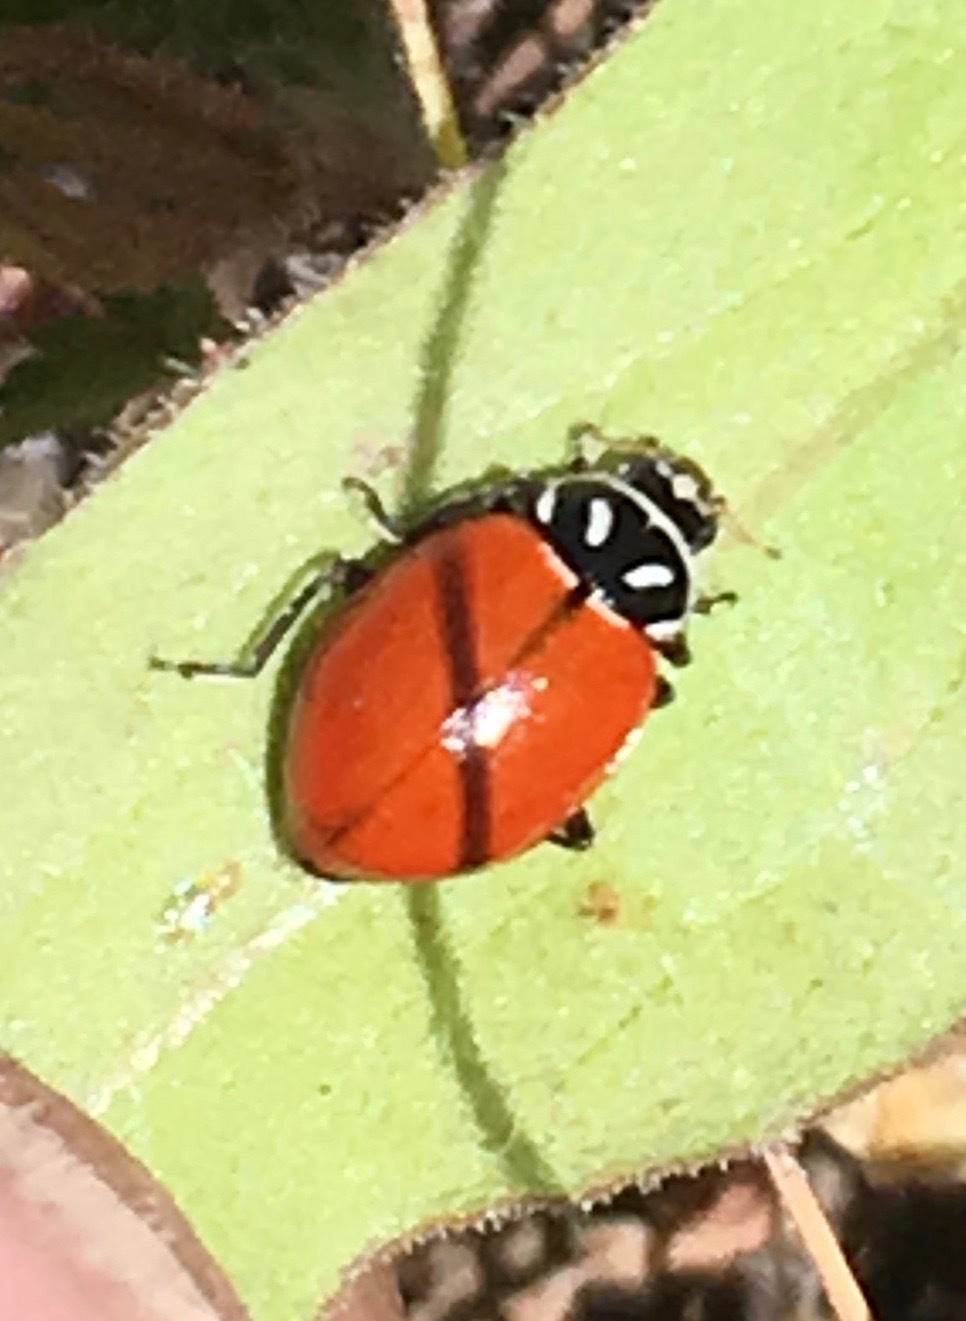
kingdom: Animalia
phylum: Arthropoda
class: Insecta
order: Coleoptera
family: Coccinellidae
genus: Hippodamia
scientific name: Hippodamia convergens
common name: Convergent lady beetle
